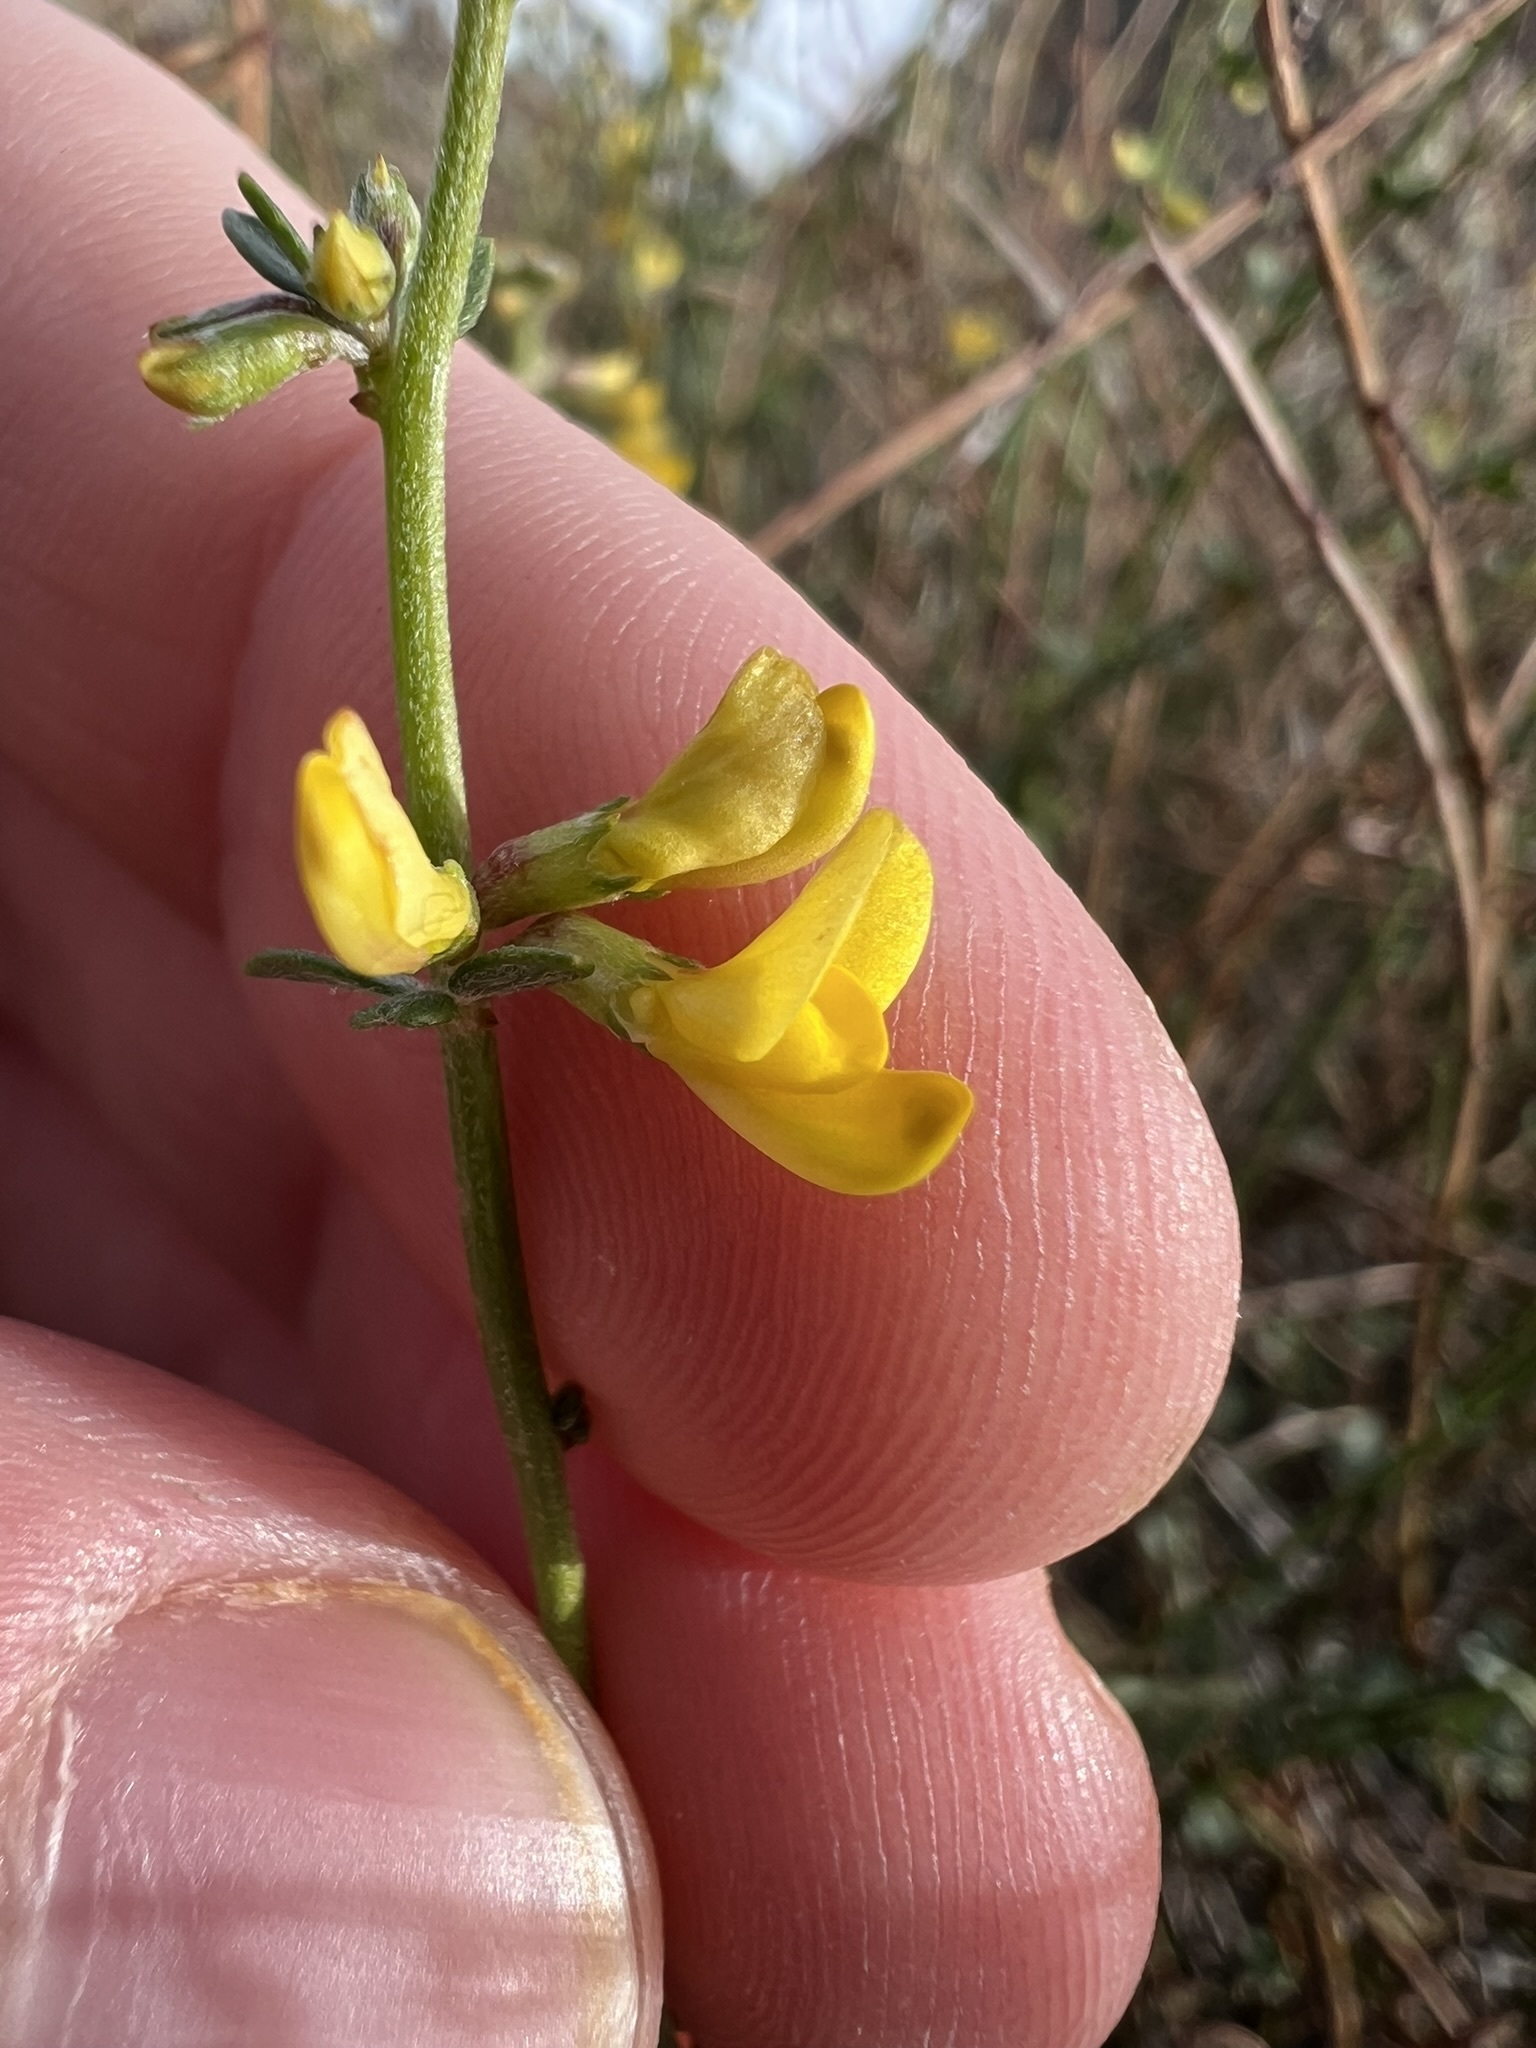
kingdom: Plantae
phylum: Tracheophyta
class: Magnoliopsida
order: Fabales
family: Fabaceae
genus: Acmispon
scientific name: Acmispon glaber
